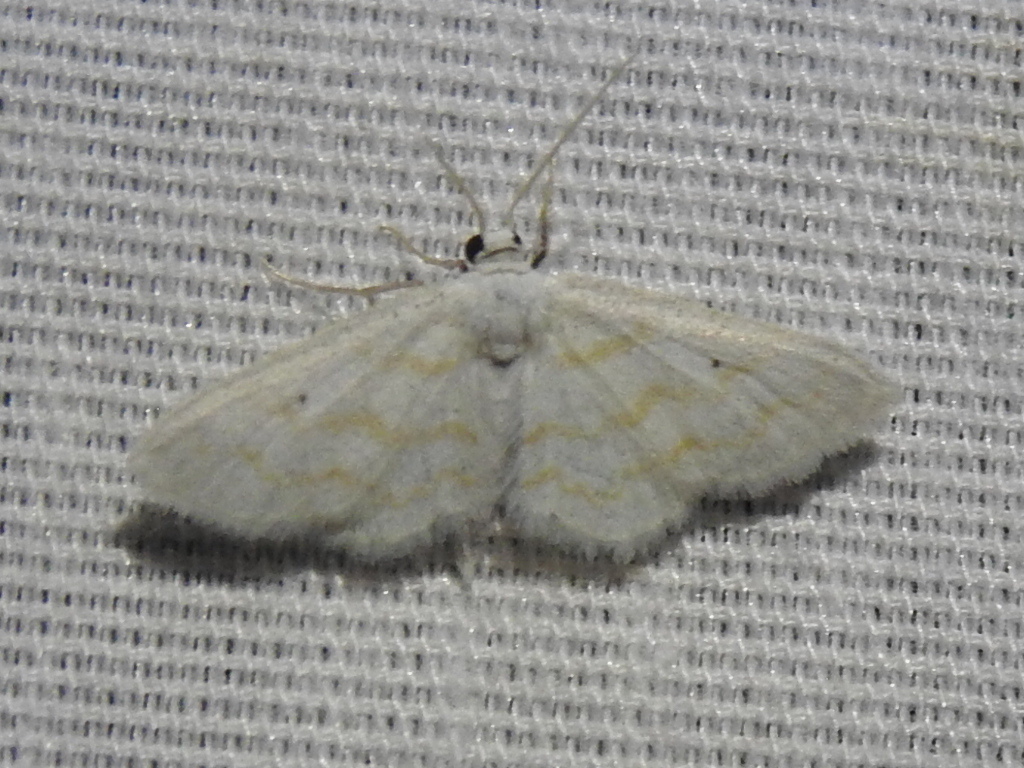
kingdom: Animalia
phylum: Arthropoda
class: Insecta
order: Lepidoptera
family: Geometridae
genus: Lobocleta
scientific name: Lobocleta peralbata
